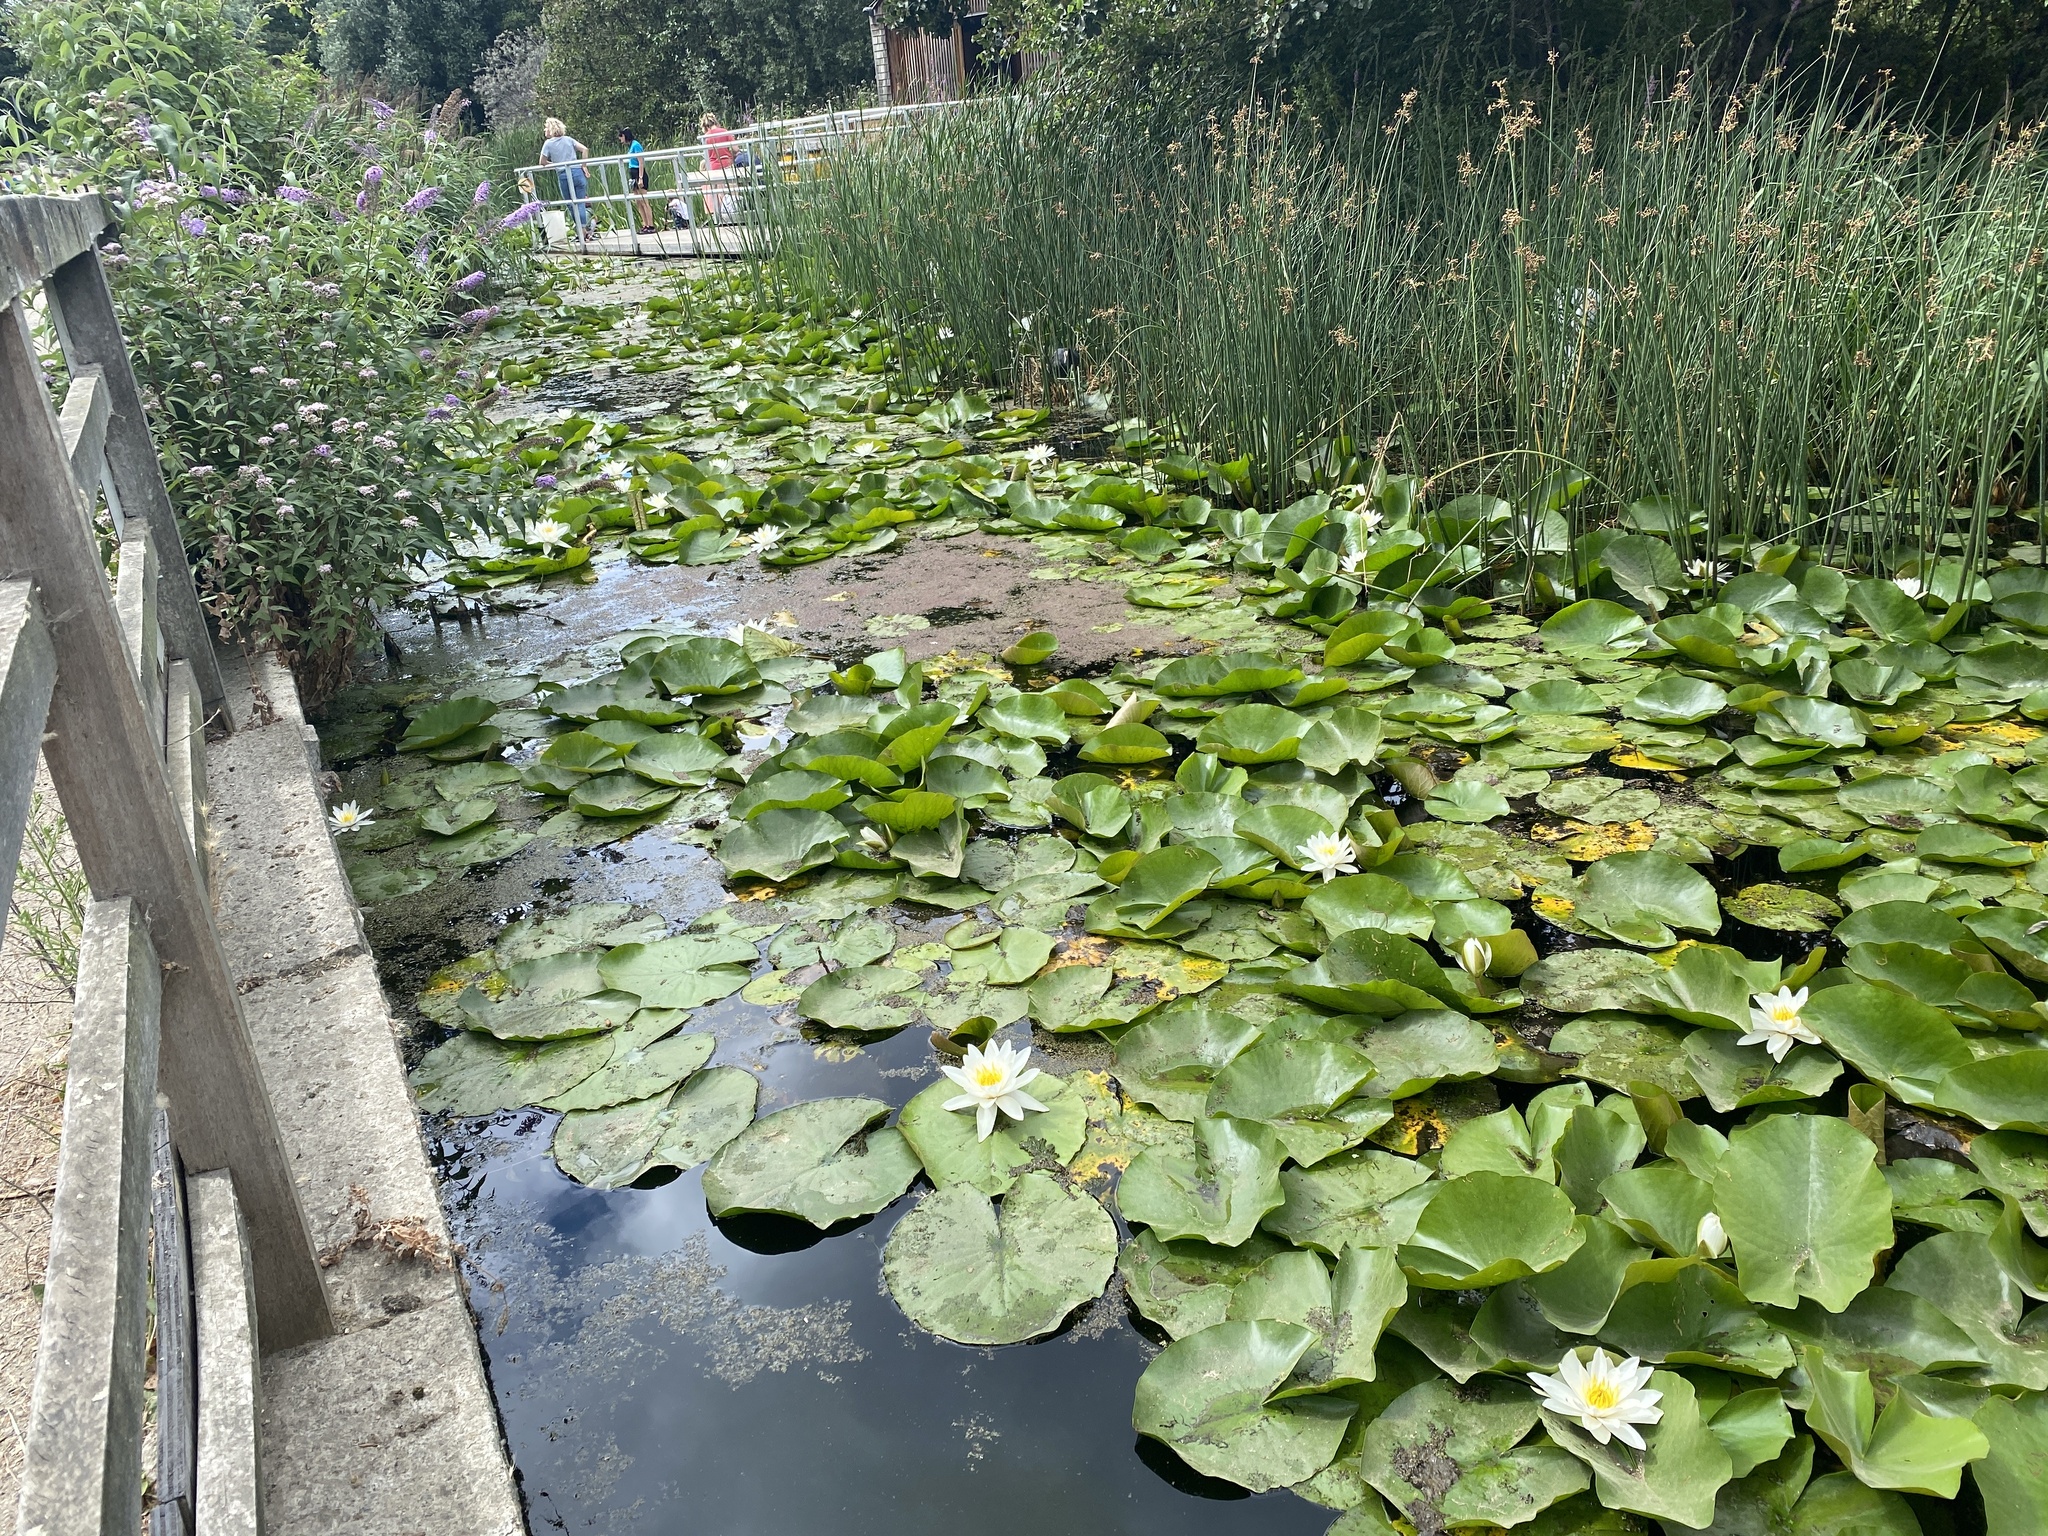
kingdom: Plantae
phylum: Tracheophyta
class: Magnoliopsida
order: Nymphaeales
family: Nymphaeaceae
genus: Nymphaea
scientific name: Nymphaea alba
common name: White water-lily
